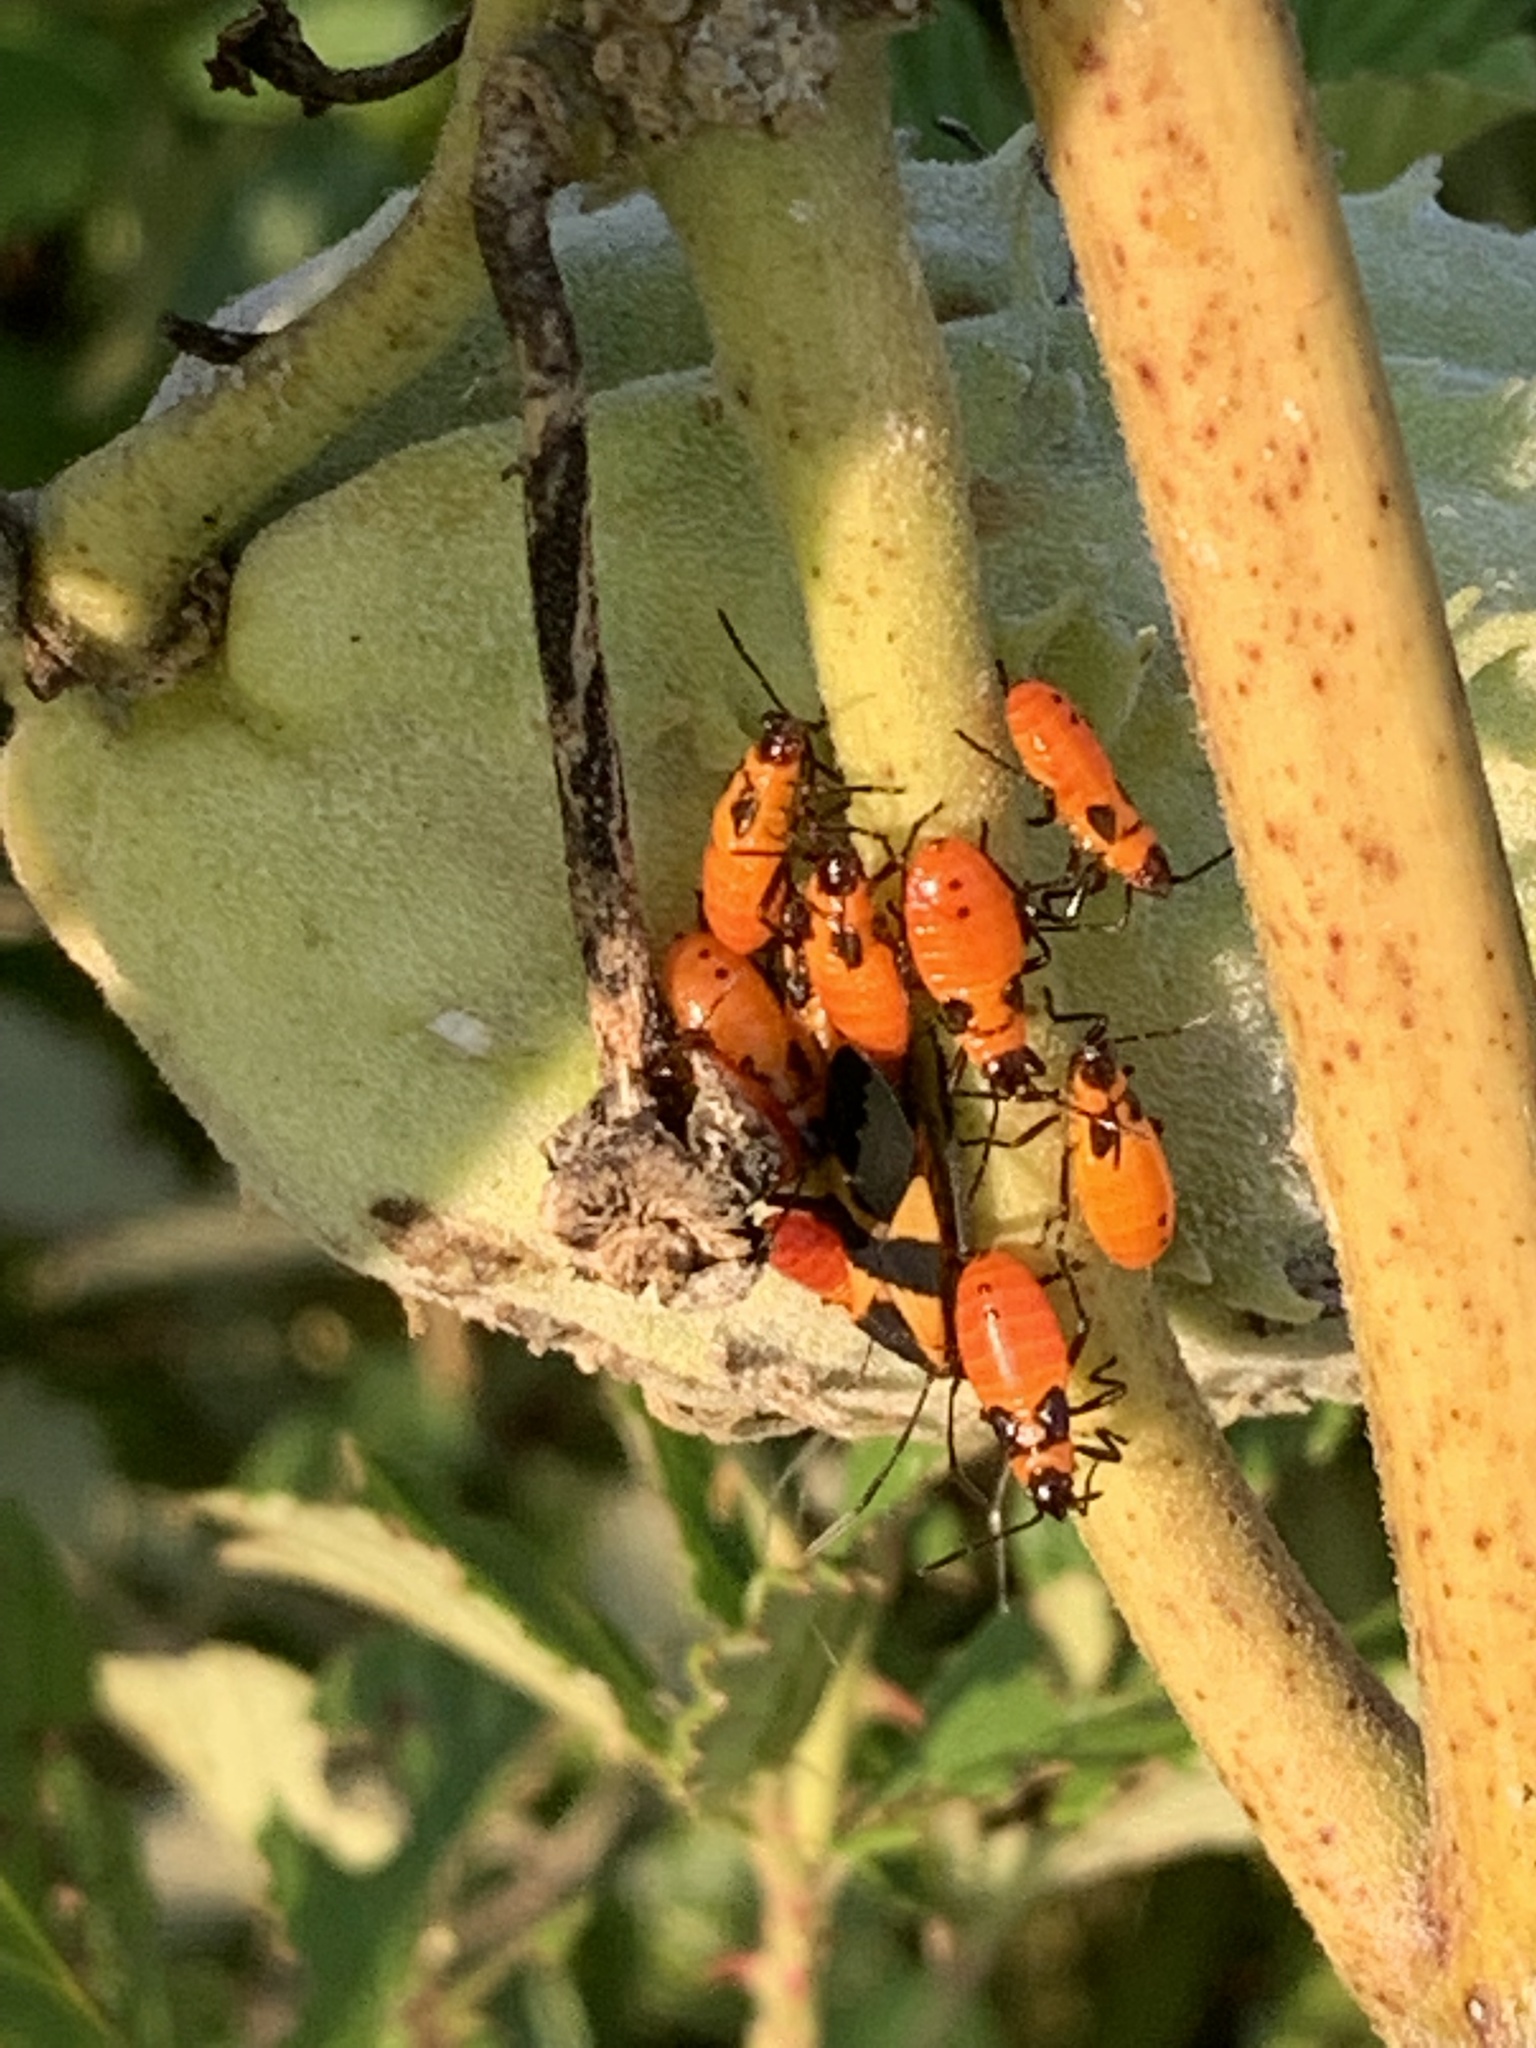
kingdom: Animalia
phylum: Arthropoda
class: Insecta
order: Hemiptera
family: Lygaeidae
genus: Oncopeltus
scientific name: Oncopeltus fasciatus
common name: Large milkweed bug
